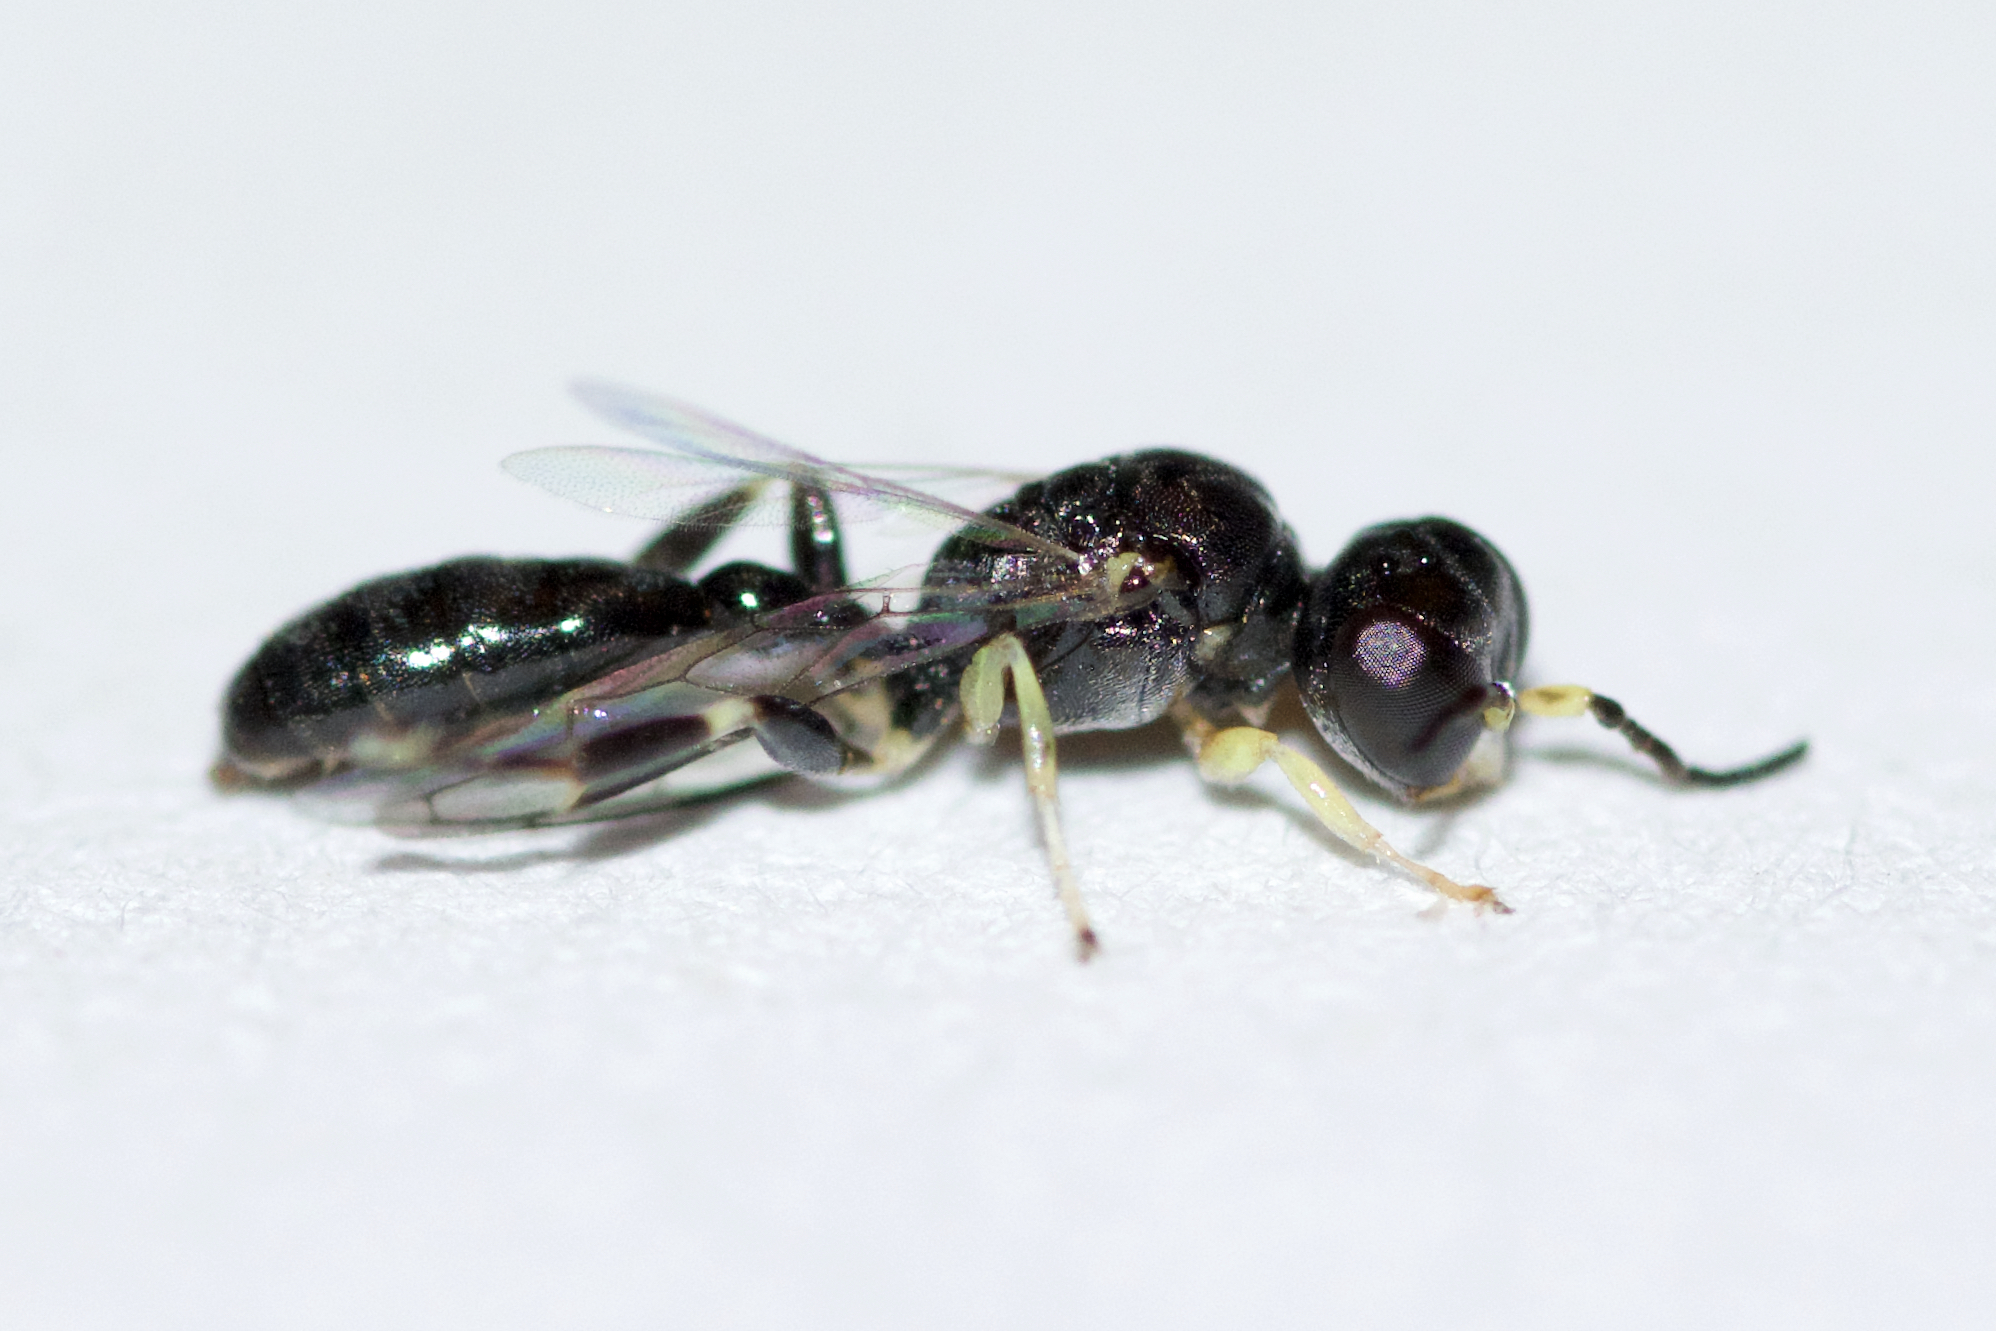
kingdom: Animalia
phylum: Arthropoda
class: Insecta
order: Hymenoptera
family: Crabronidae
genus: Rhopalum
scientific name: Rhopalum
